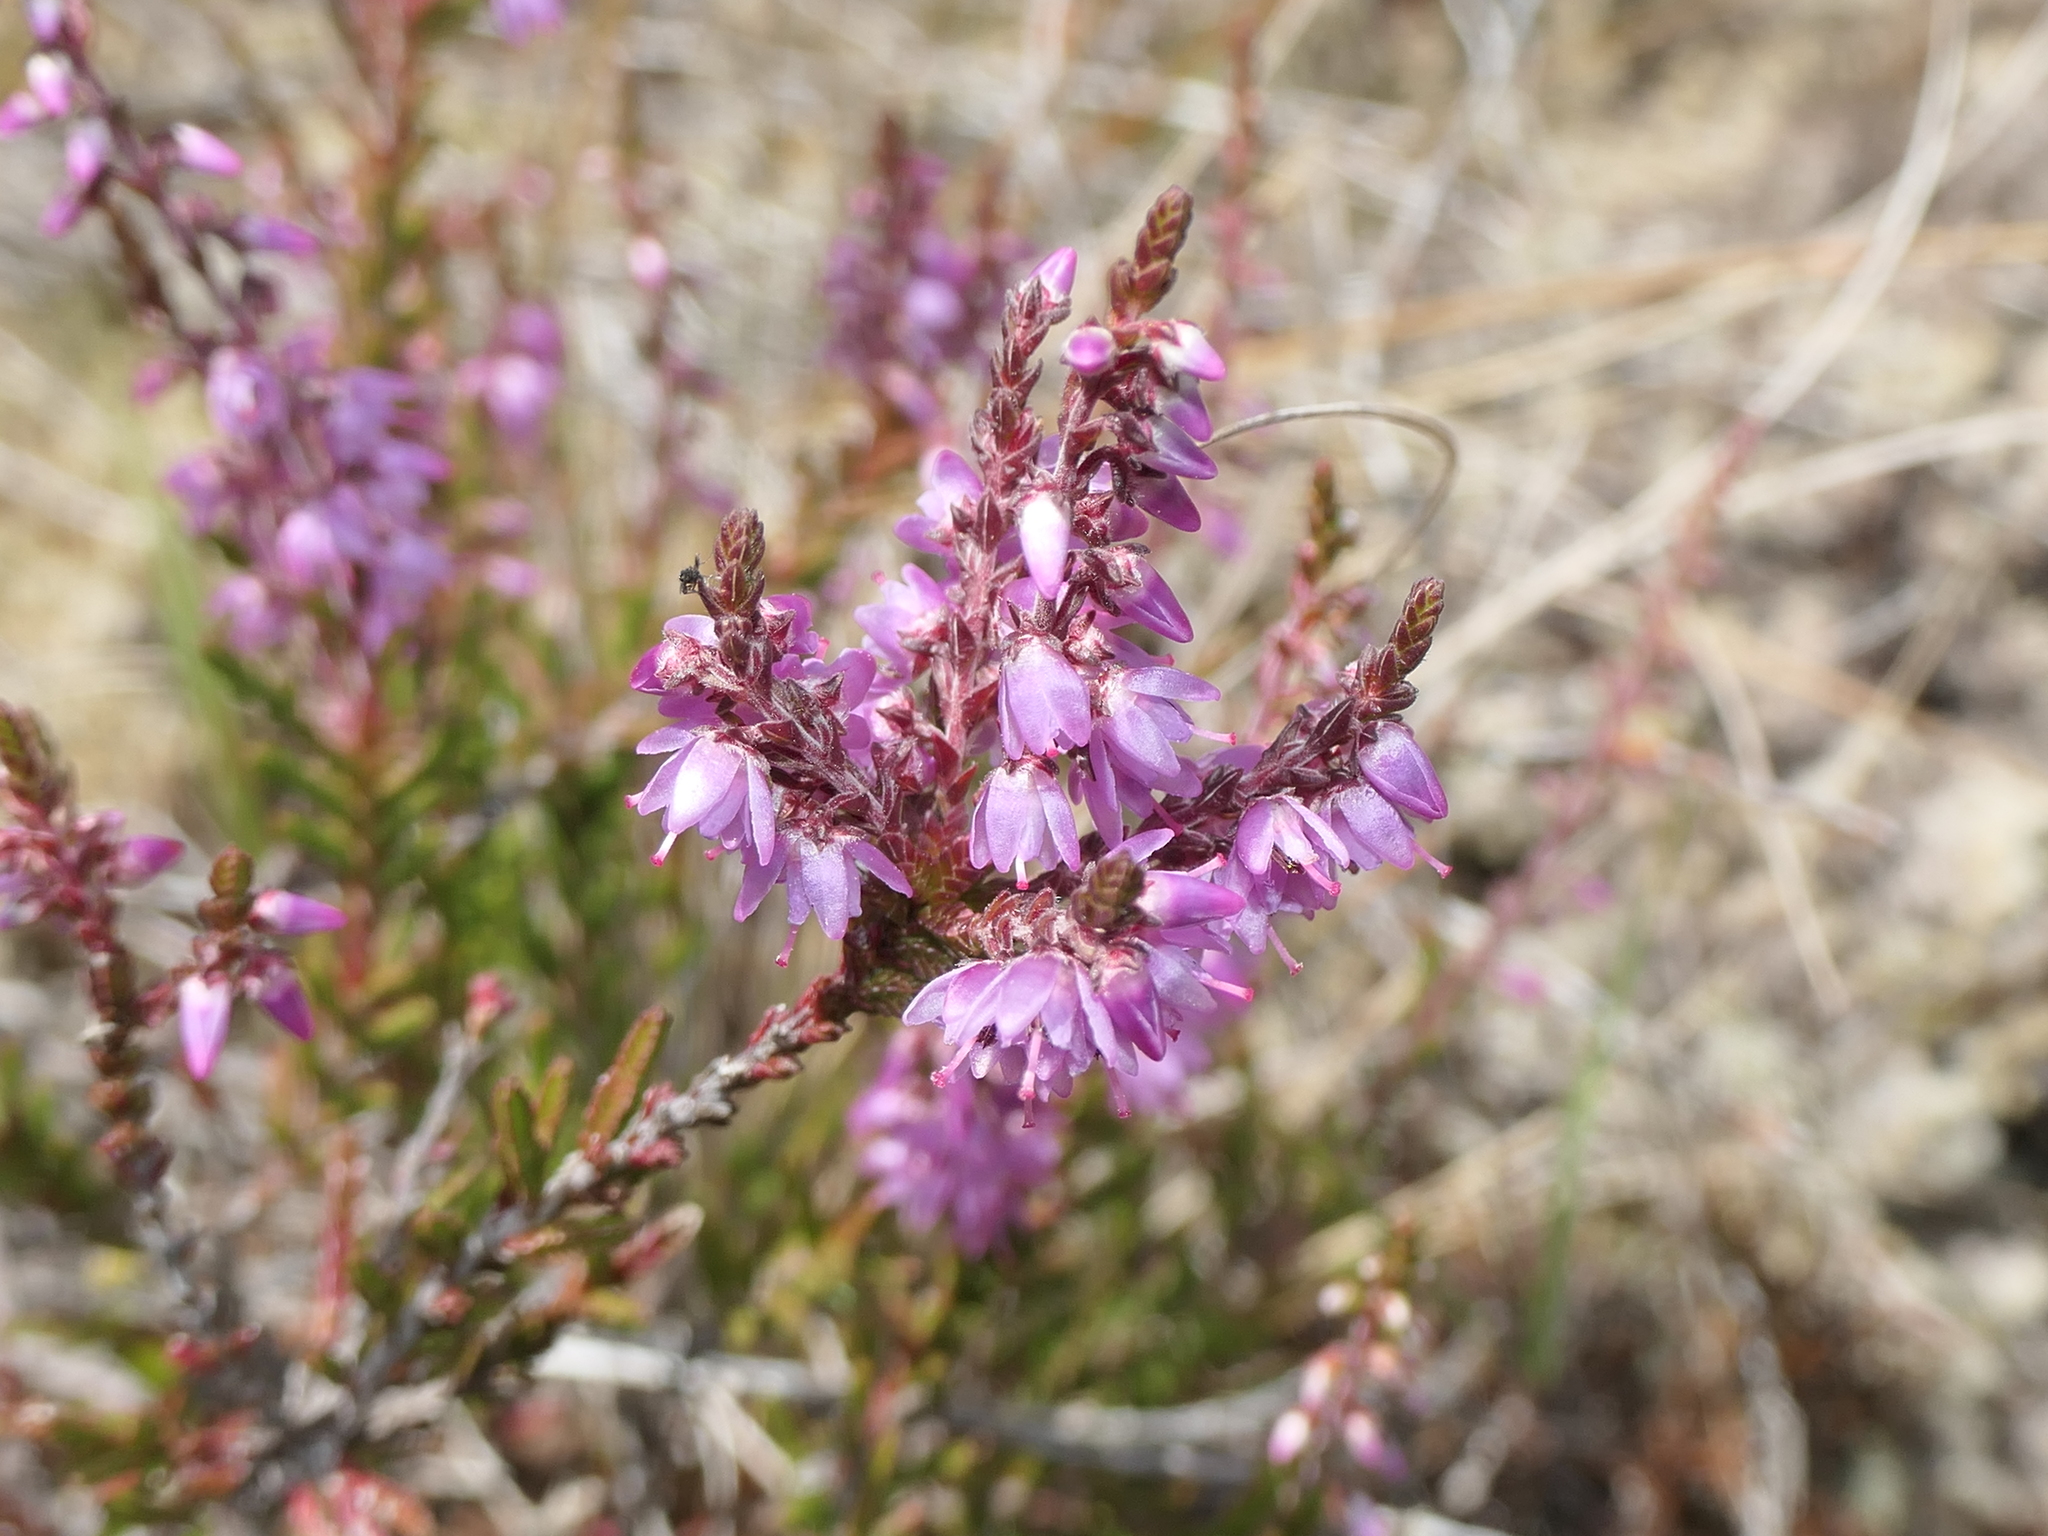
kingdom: Plantae
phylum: Tracheophyta
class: Magnoliopsida
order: Ericales
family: Ericaceae
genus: Calluna
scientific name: Calluna vulgaris
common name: Heather
